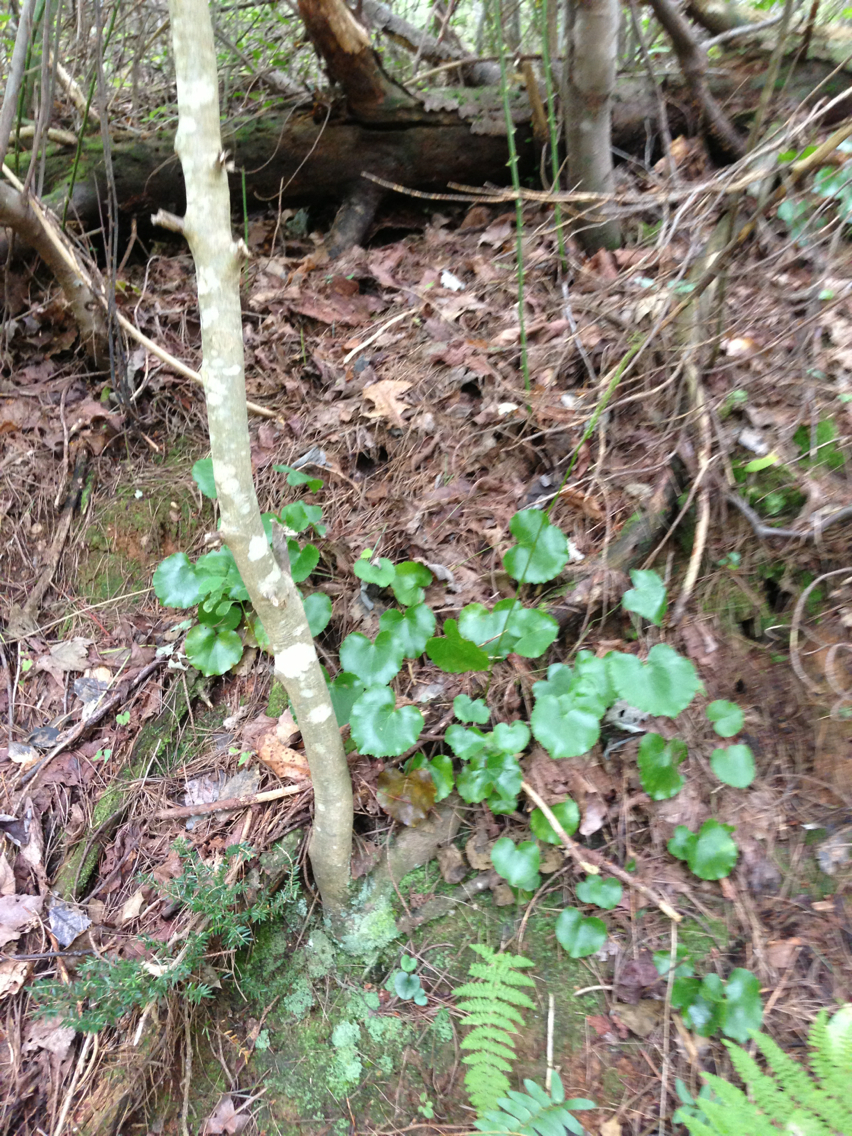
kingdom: Plantae
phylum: Tracheophyta
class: Magnoliopsida
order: Ericales
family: Diapensiaceae
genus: Galax
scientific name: Galax urceolata
